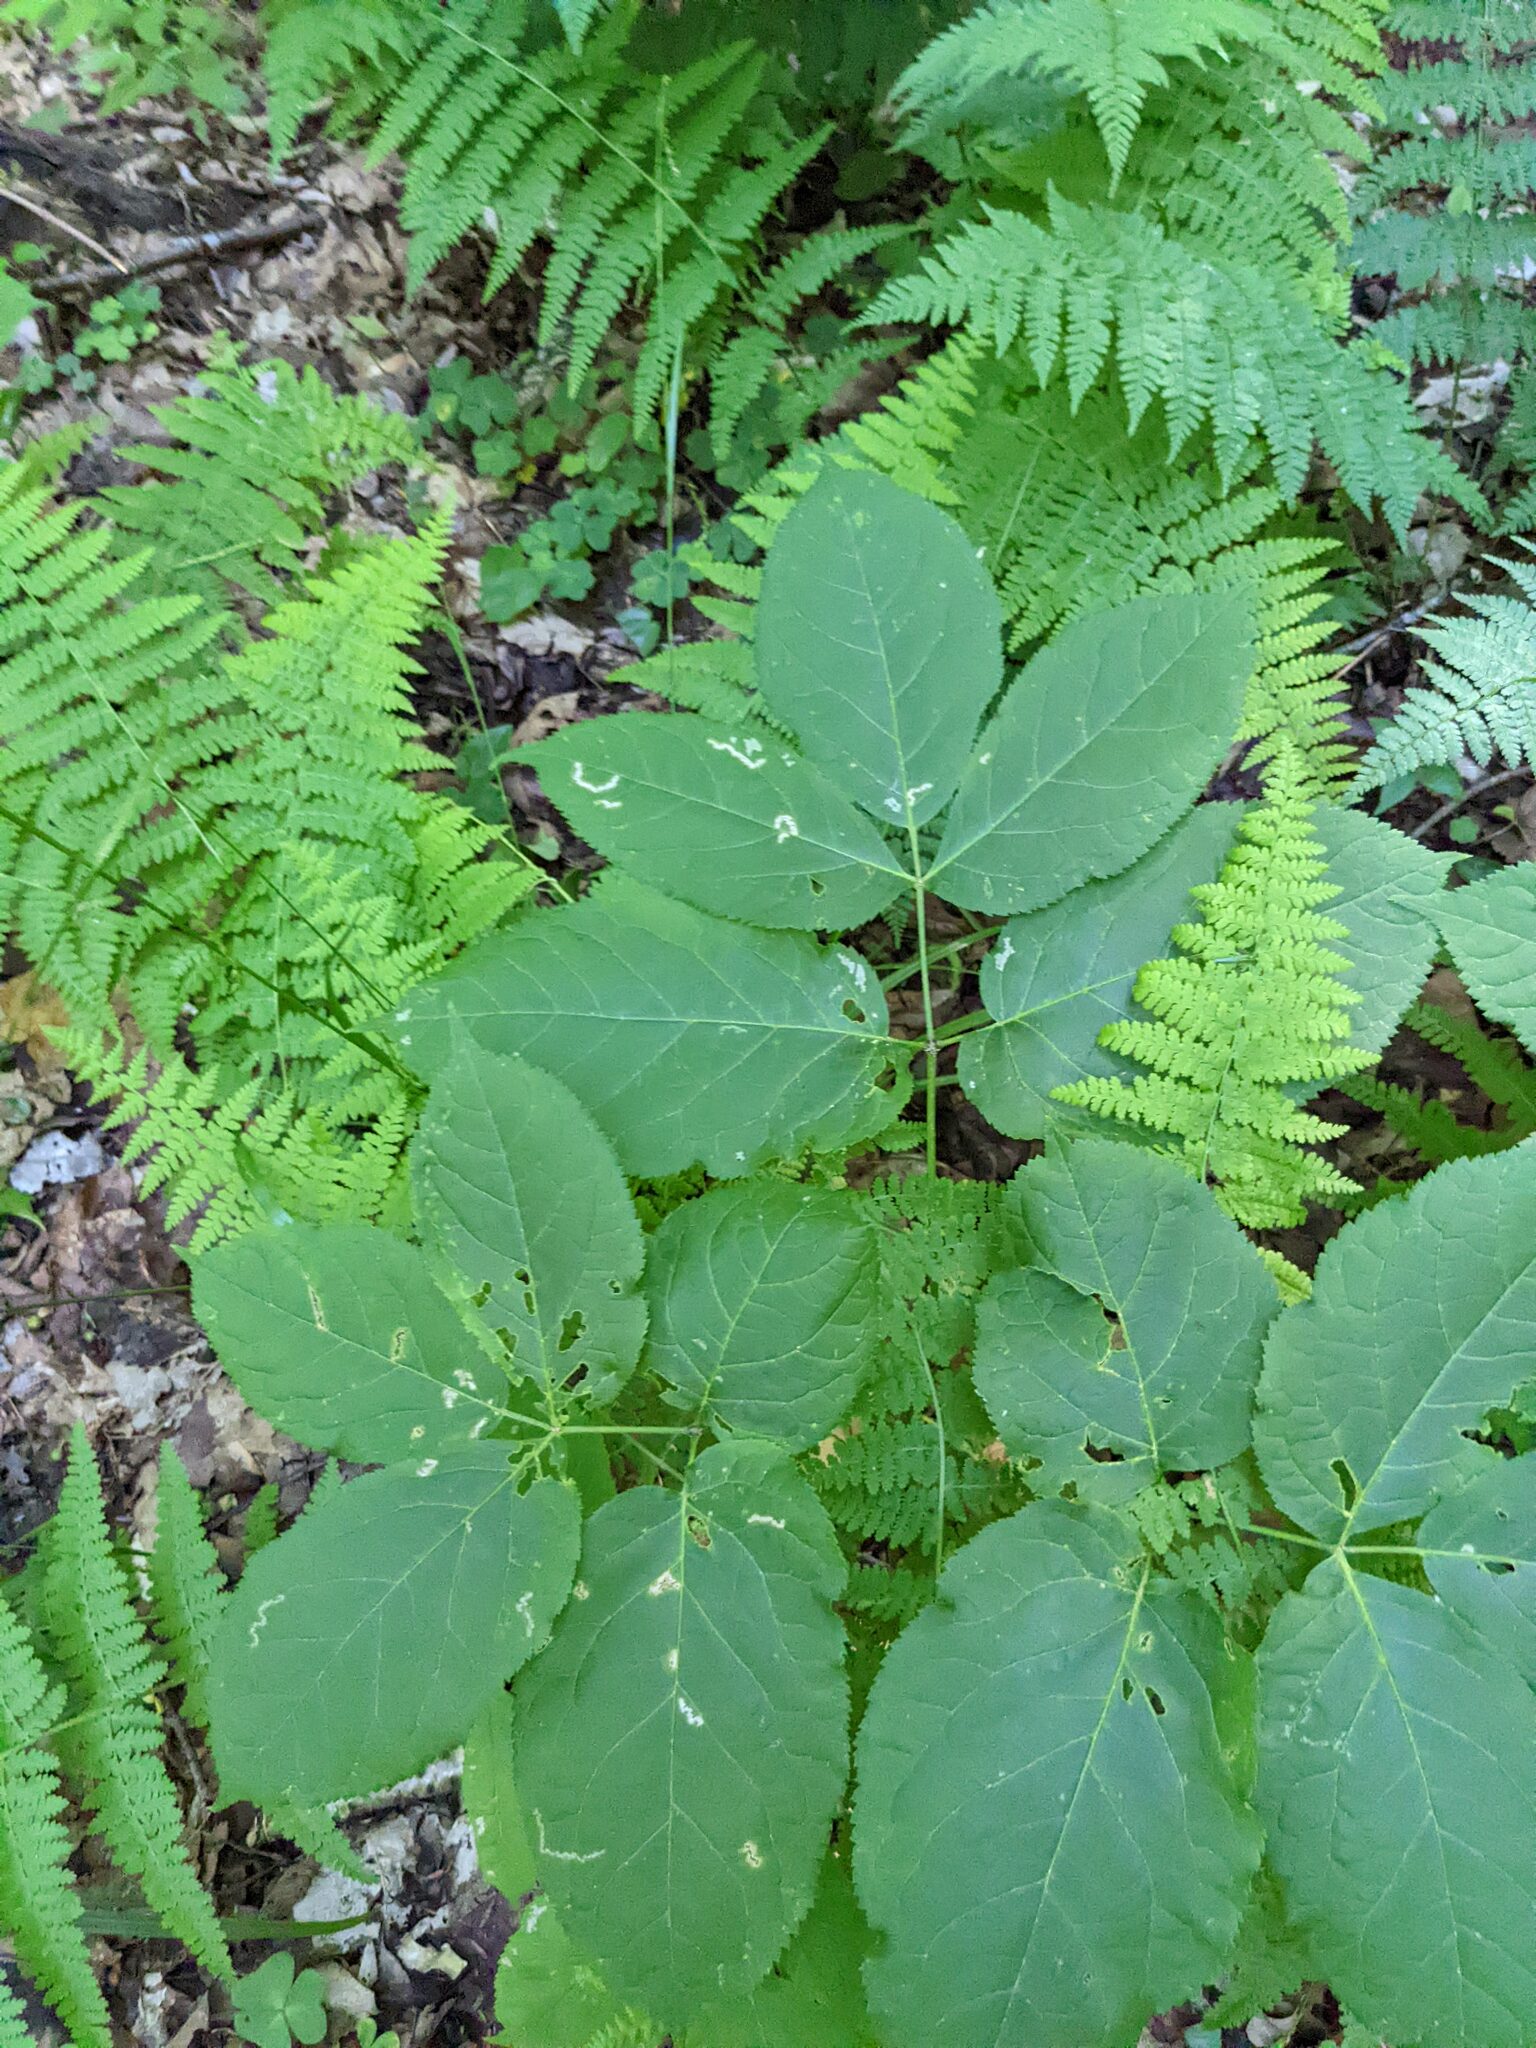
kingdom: Plantae
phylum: Tracheophyta
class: Magnoliopsida
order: Apiales
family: Araliaceae
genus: Aralia
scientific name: Aralia nudicaulis
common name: Wild sarsaparilla
